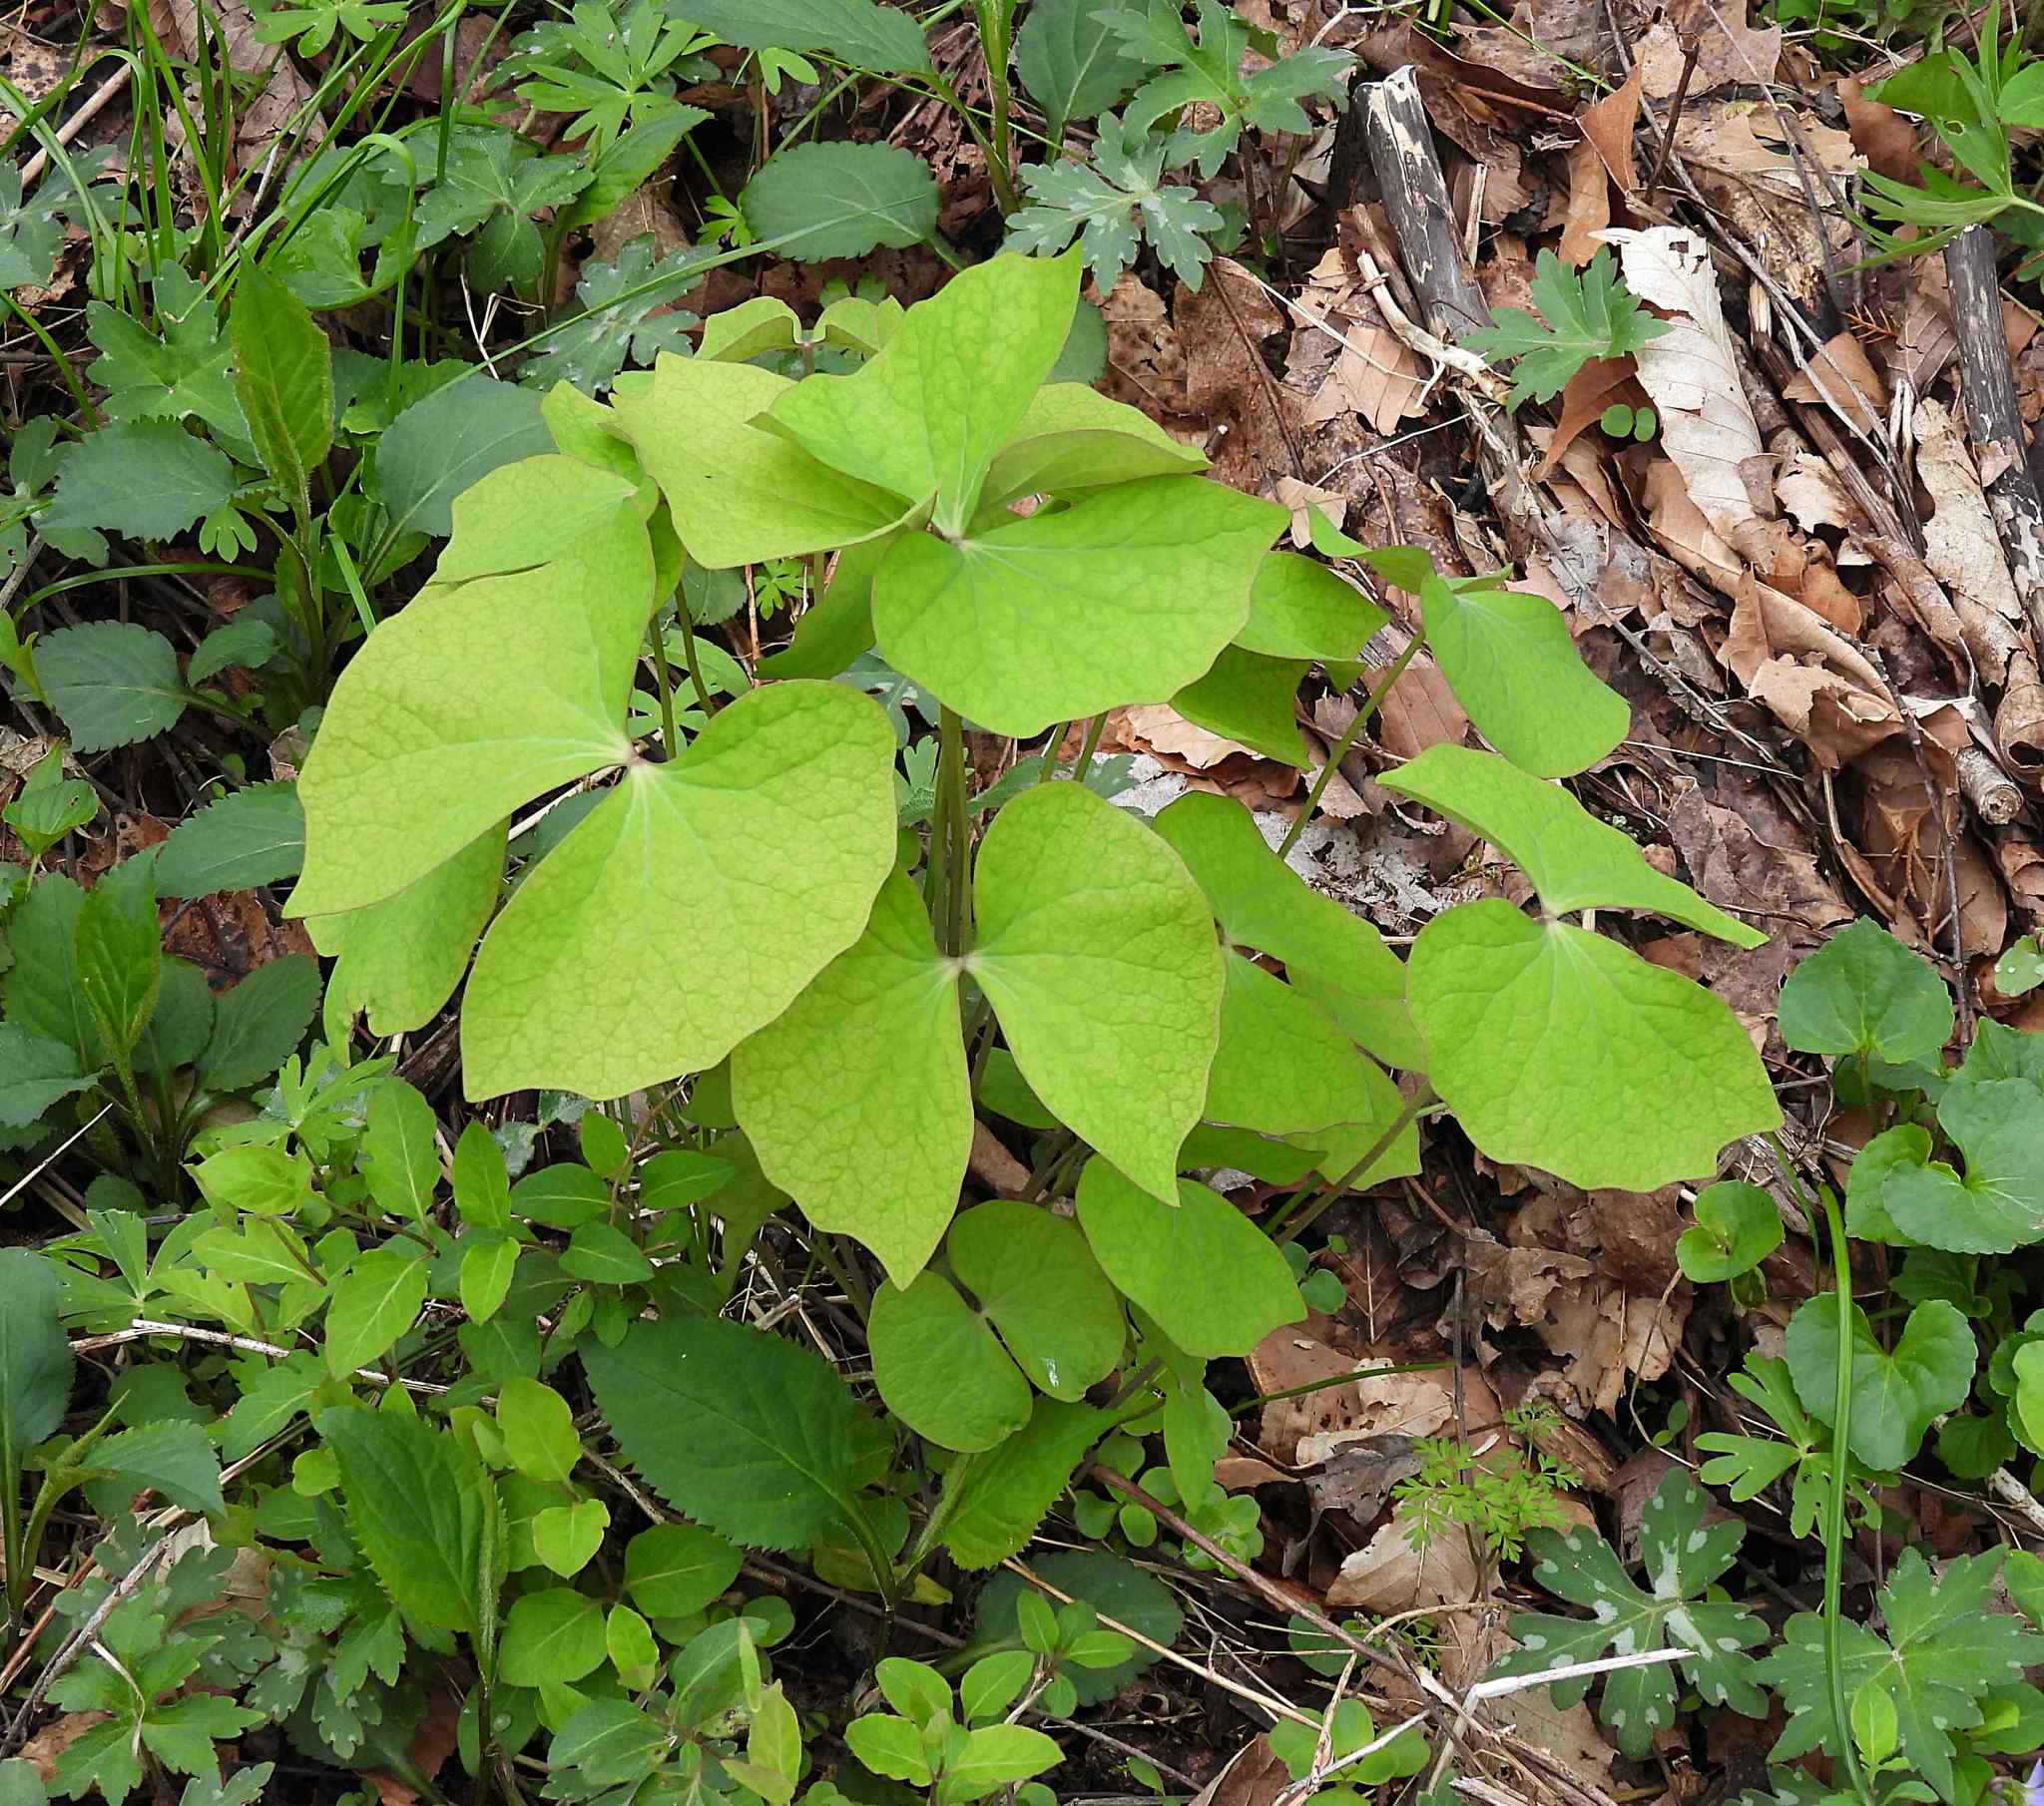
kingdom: Plantae
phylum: Tracheophyta
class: Magnoliopsida
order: Ranunculales
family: Berberidaceae
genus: Jeffersonia
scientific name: Jeffersonia diphylla
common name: Rheumatism-root
